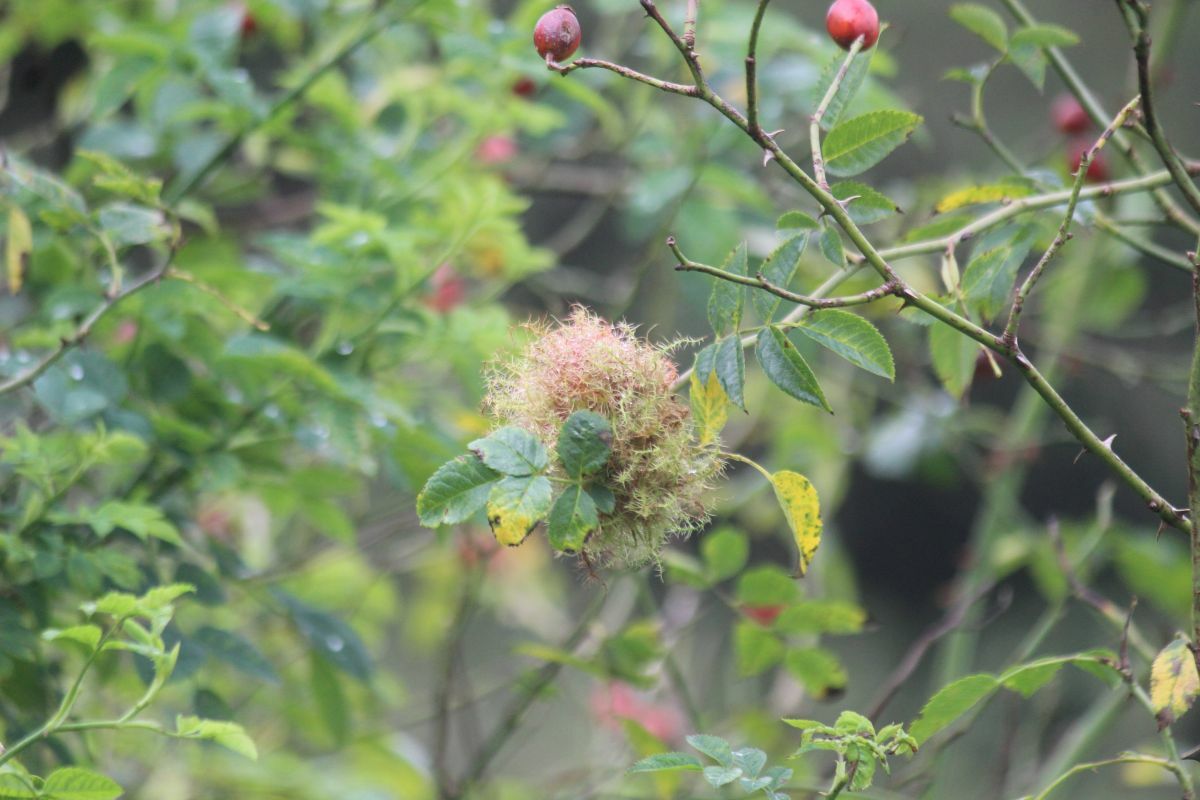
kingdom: Animalia
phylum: Arthropoda
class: Insecta
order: Hymenoptera
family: Cynipidae
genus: Diplolepis
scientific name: Diplolepis rosae
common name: Bedeguar gall
